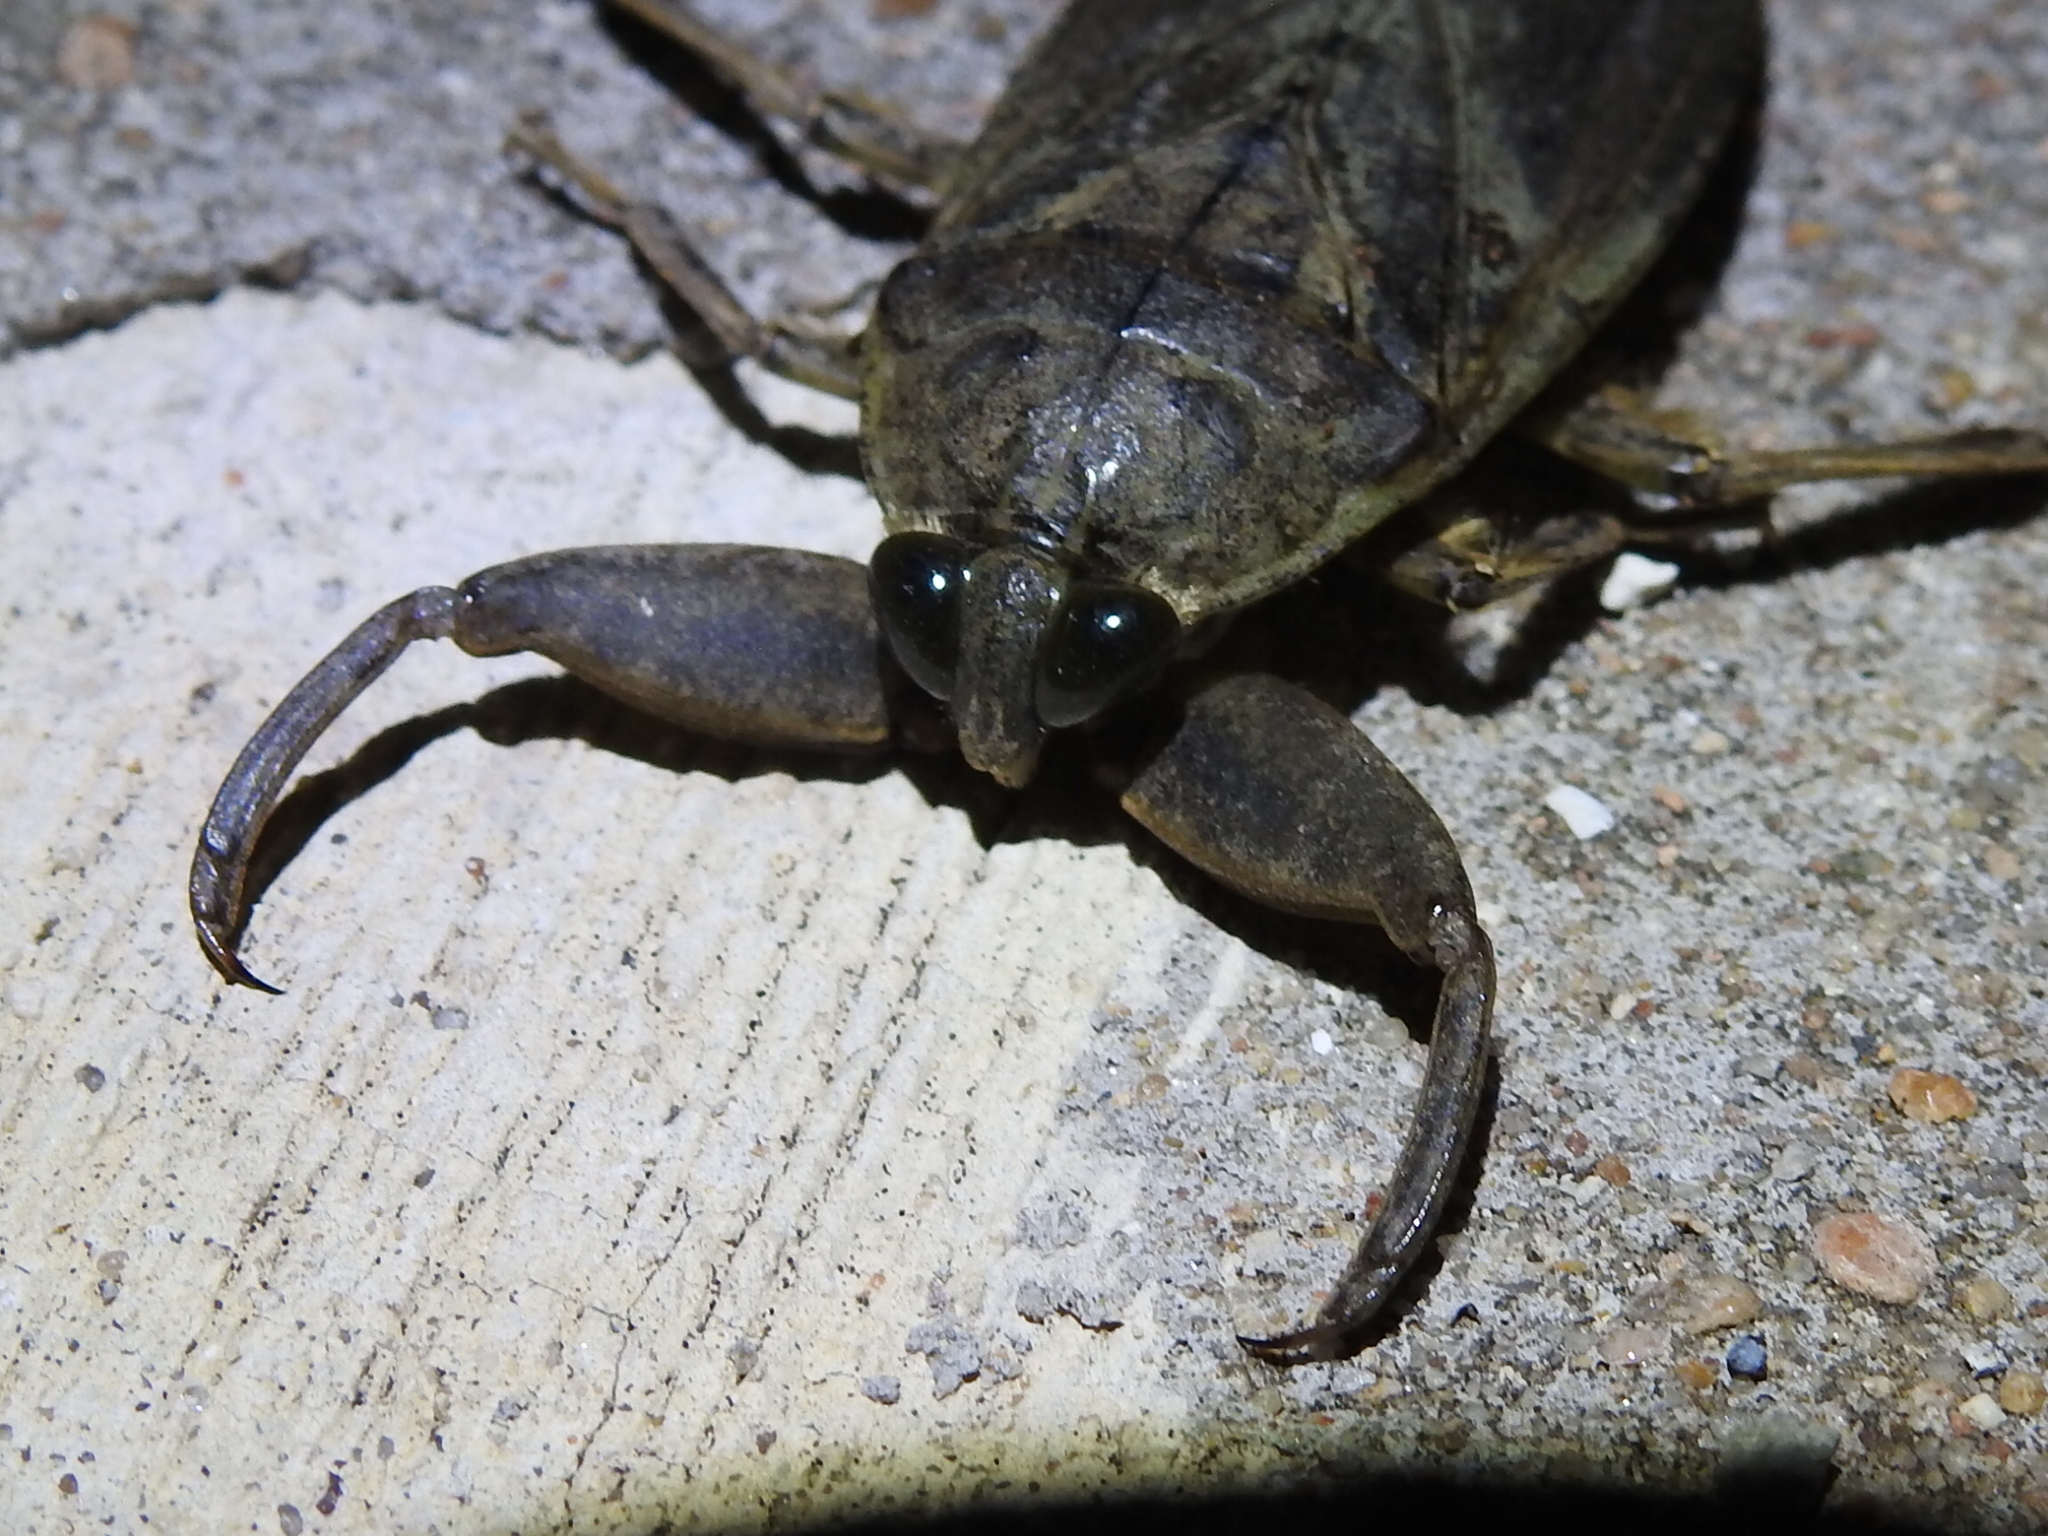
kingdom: Animalia
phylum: Arthropoda
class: Insecta
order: Hemiptera
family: Belostomatidae
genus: Lethocerus
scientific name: Lethocerus
